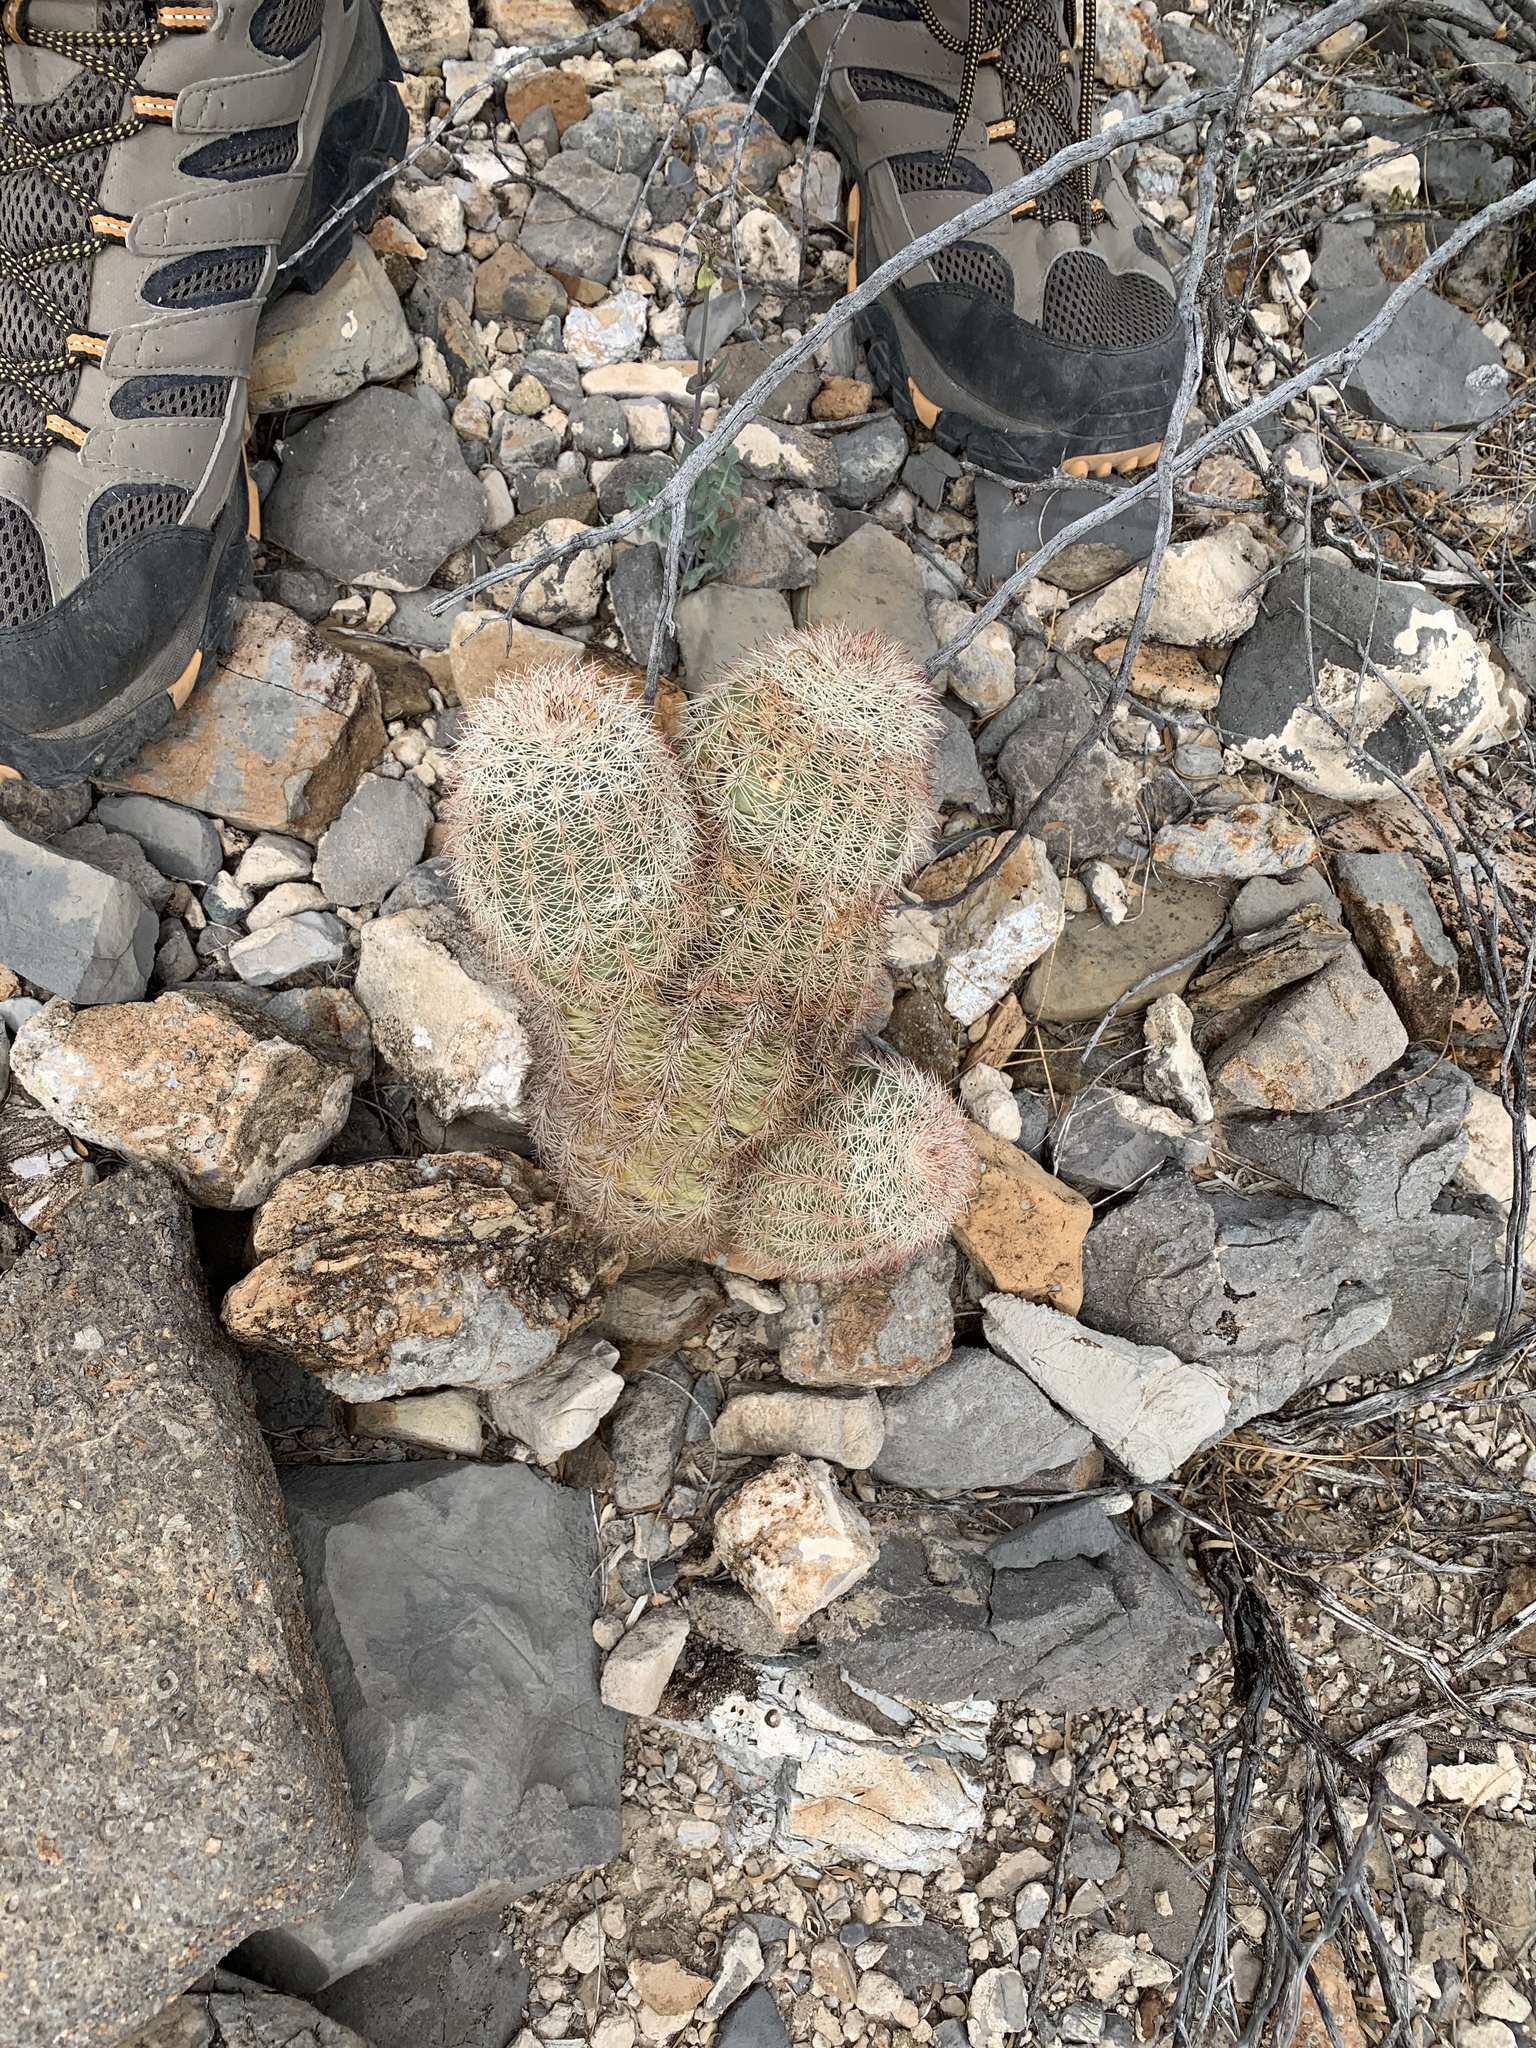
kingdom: Plantae
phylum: Tracheophyta
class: Magnoliopsida
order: Caryophyllales
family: Cactaceae
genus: Echinocereus
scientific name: Echinocereus dasyacanthus
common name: Spiny hedgehog cactus
